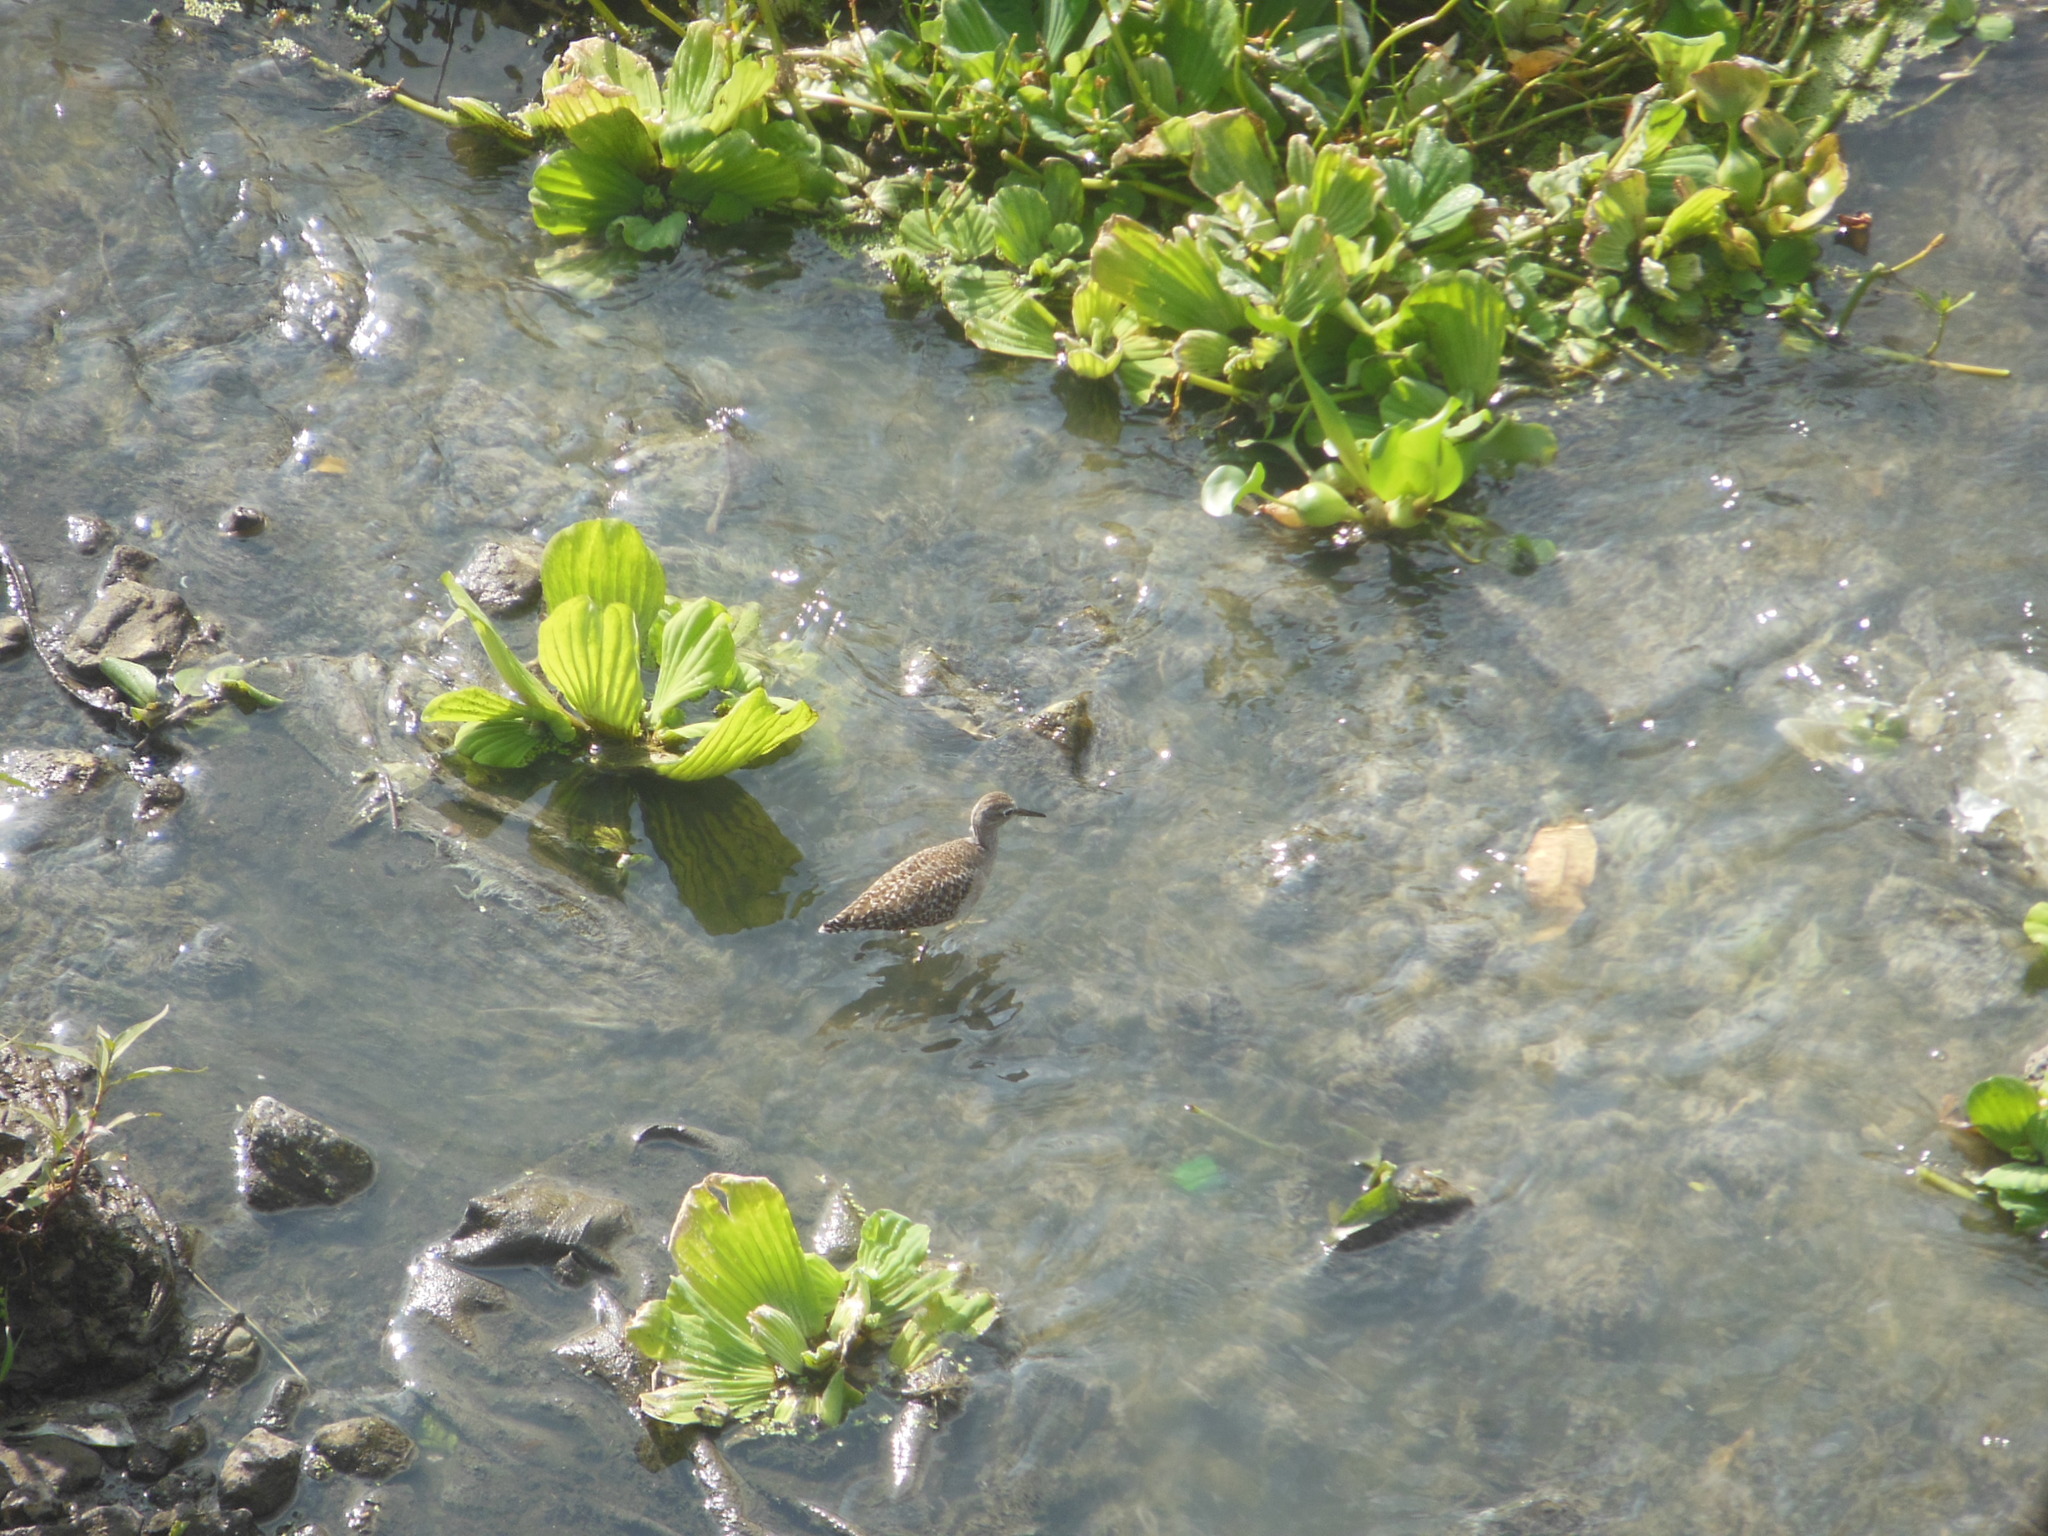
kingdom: Animalia
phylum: Chordata
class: Aves
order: Charadriiformes
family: Scolopacidae
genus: Tringa
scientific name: Tringa glareola
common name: Wood sandpiper
